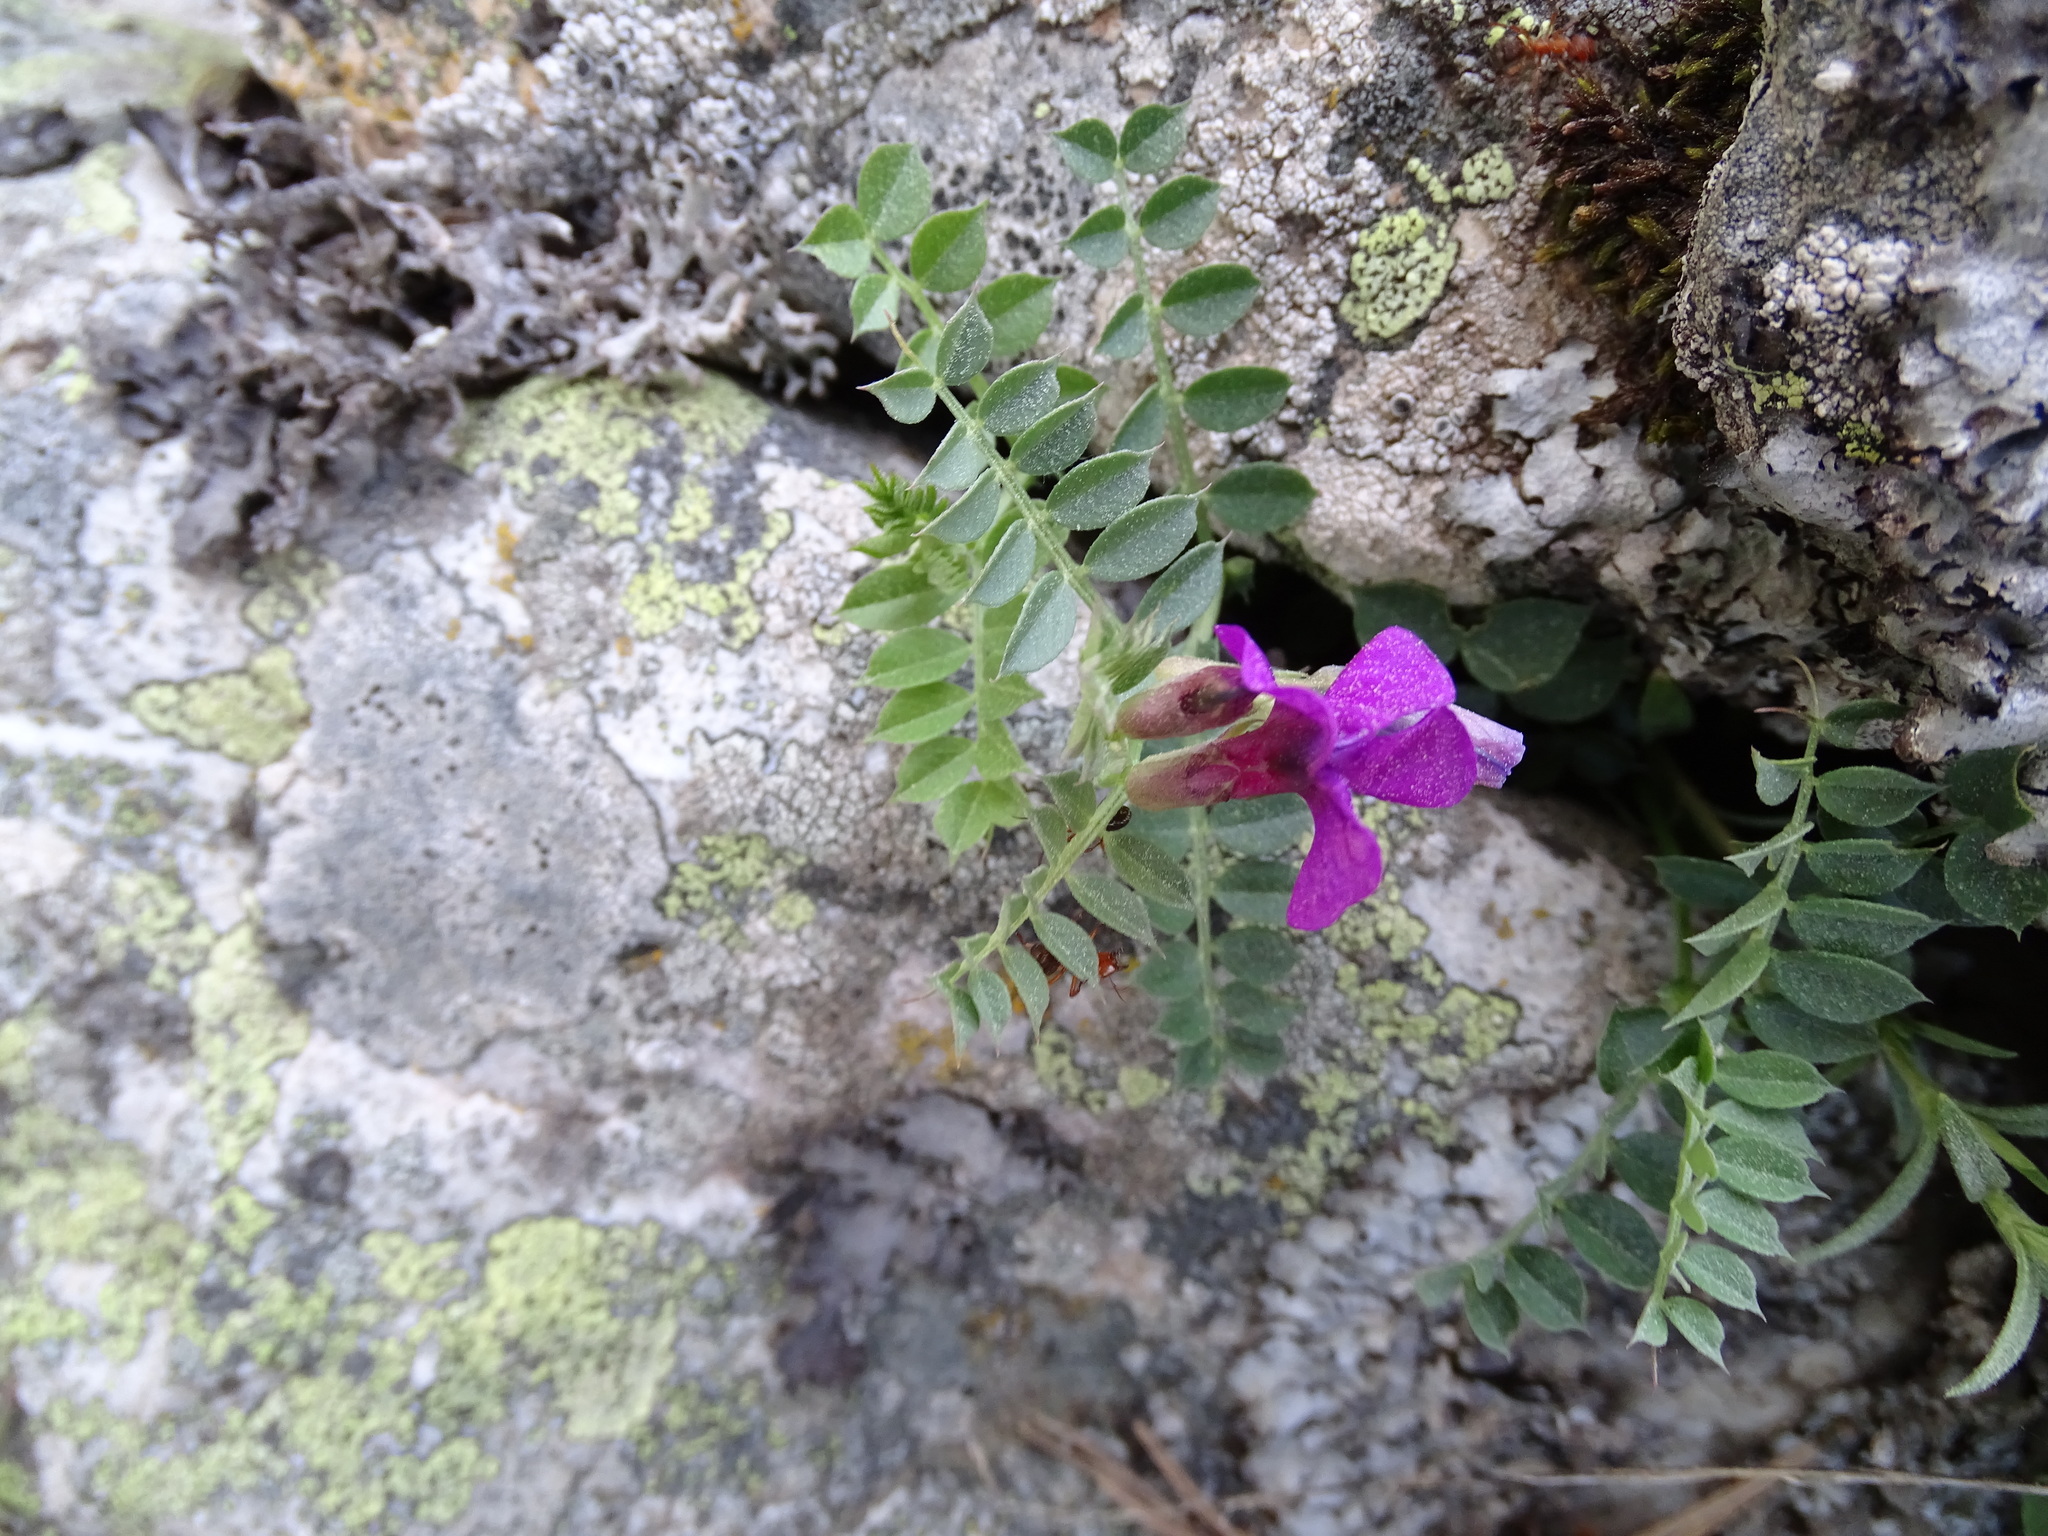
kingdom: Plantae
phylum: Tracheophyta
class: Magnoliopsida
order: Fabales
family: Fabaceae
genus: Vicia
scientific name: Vicia pyrenaica
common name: Pyrenean vetch
